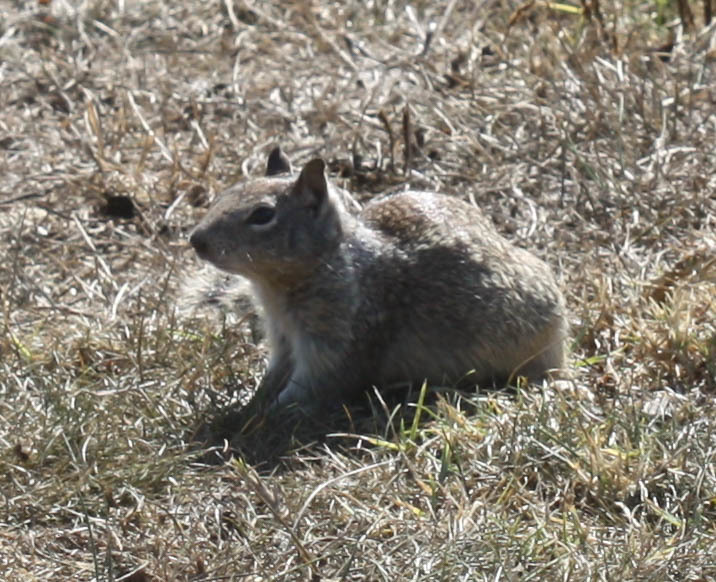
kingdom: Animalia
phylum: Chordata
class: Mammalia
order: Rodentia
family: Sciuridae
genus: Otospermophilus
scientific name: Otospermophilus beecheyi
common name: California ground squirrel
